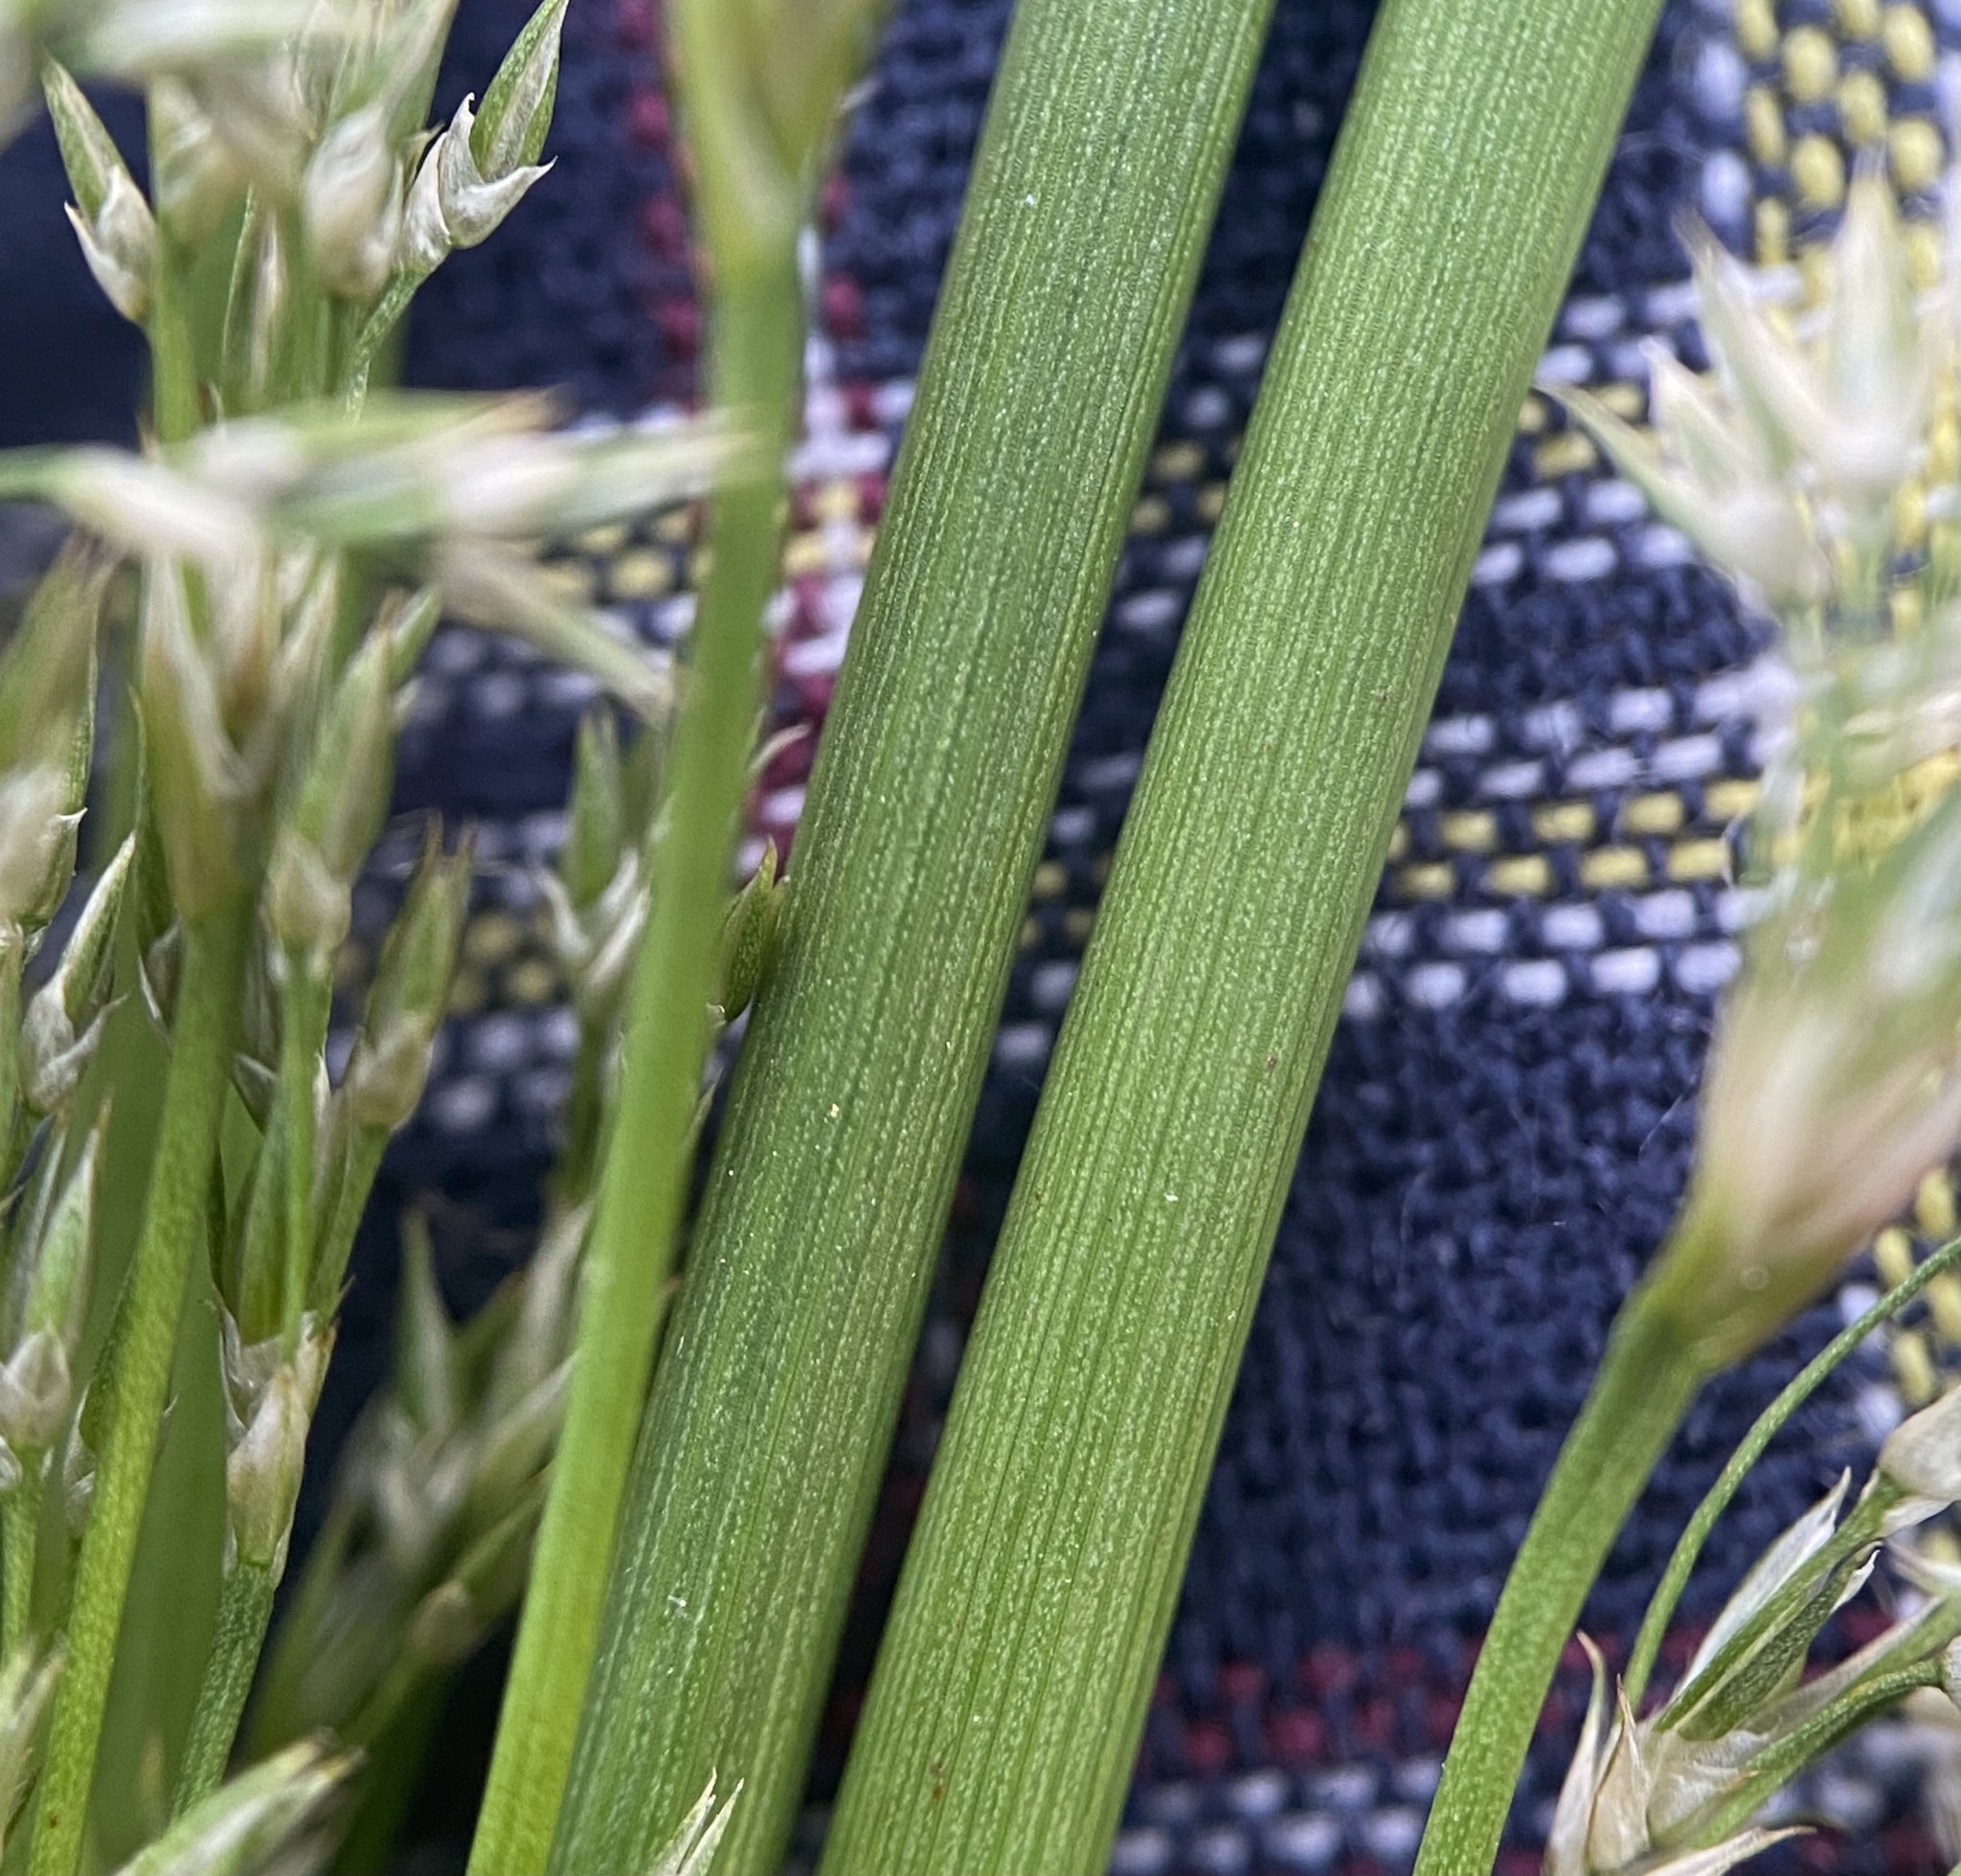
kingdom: Plantae
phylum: Tracheophyta
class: Liliopsida
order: Poales
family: Juncaceae
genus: Juncus
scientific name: Juncus pylaei
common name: Common rush
